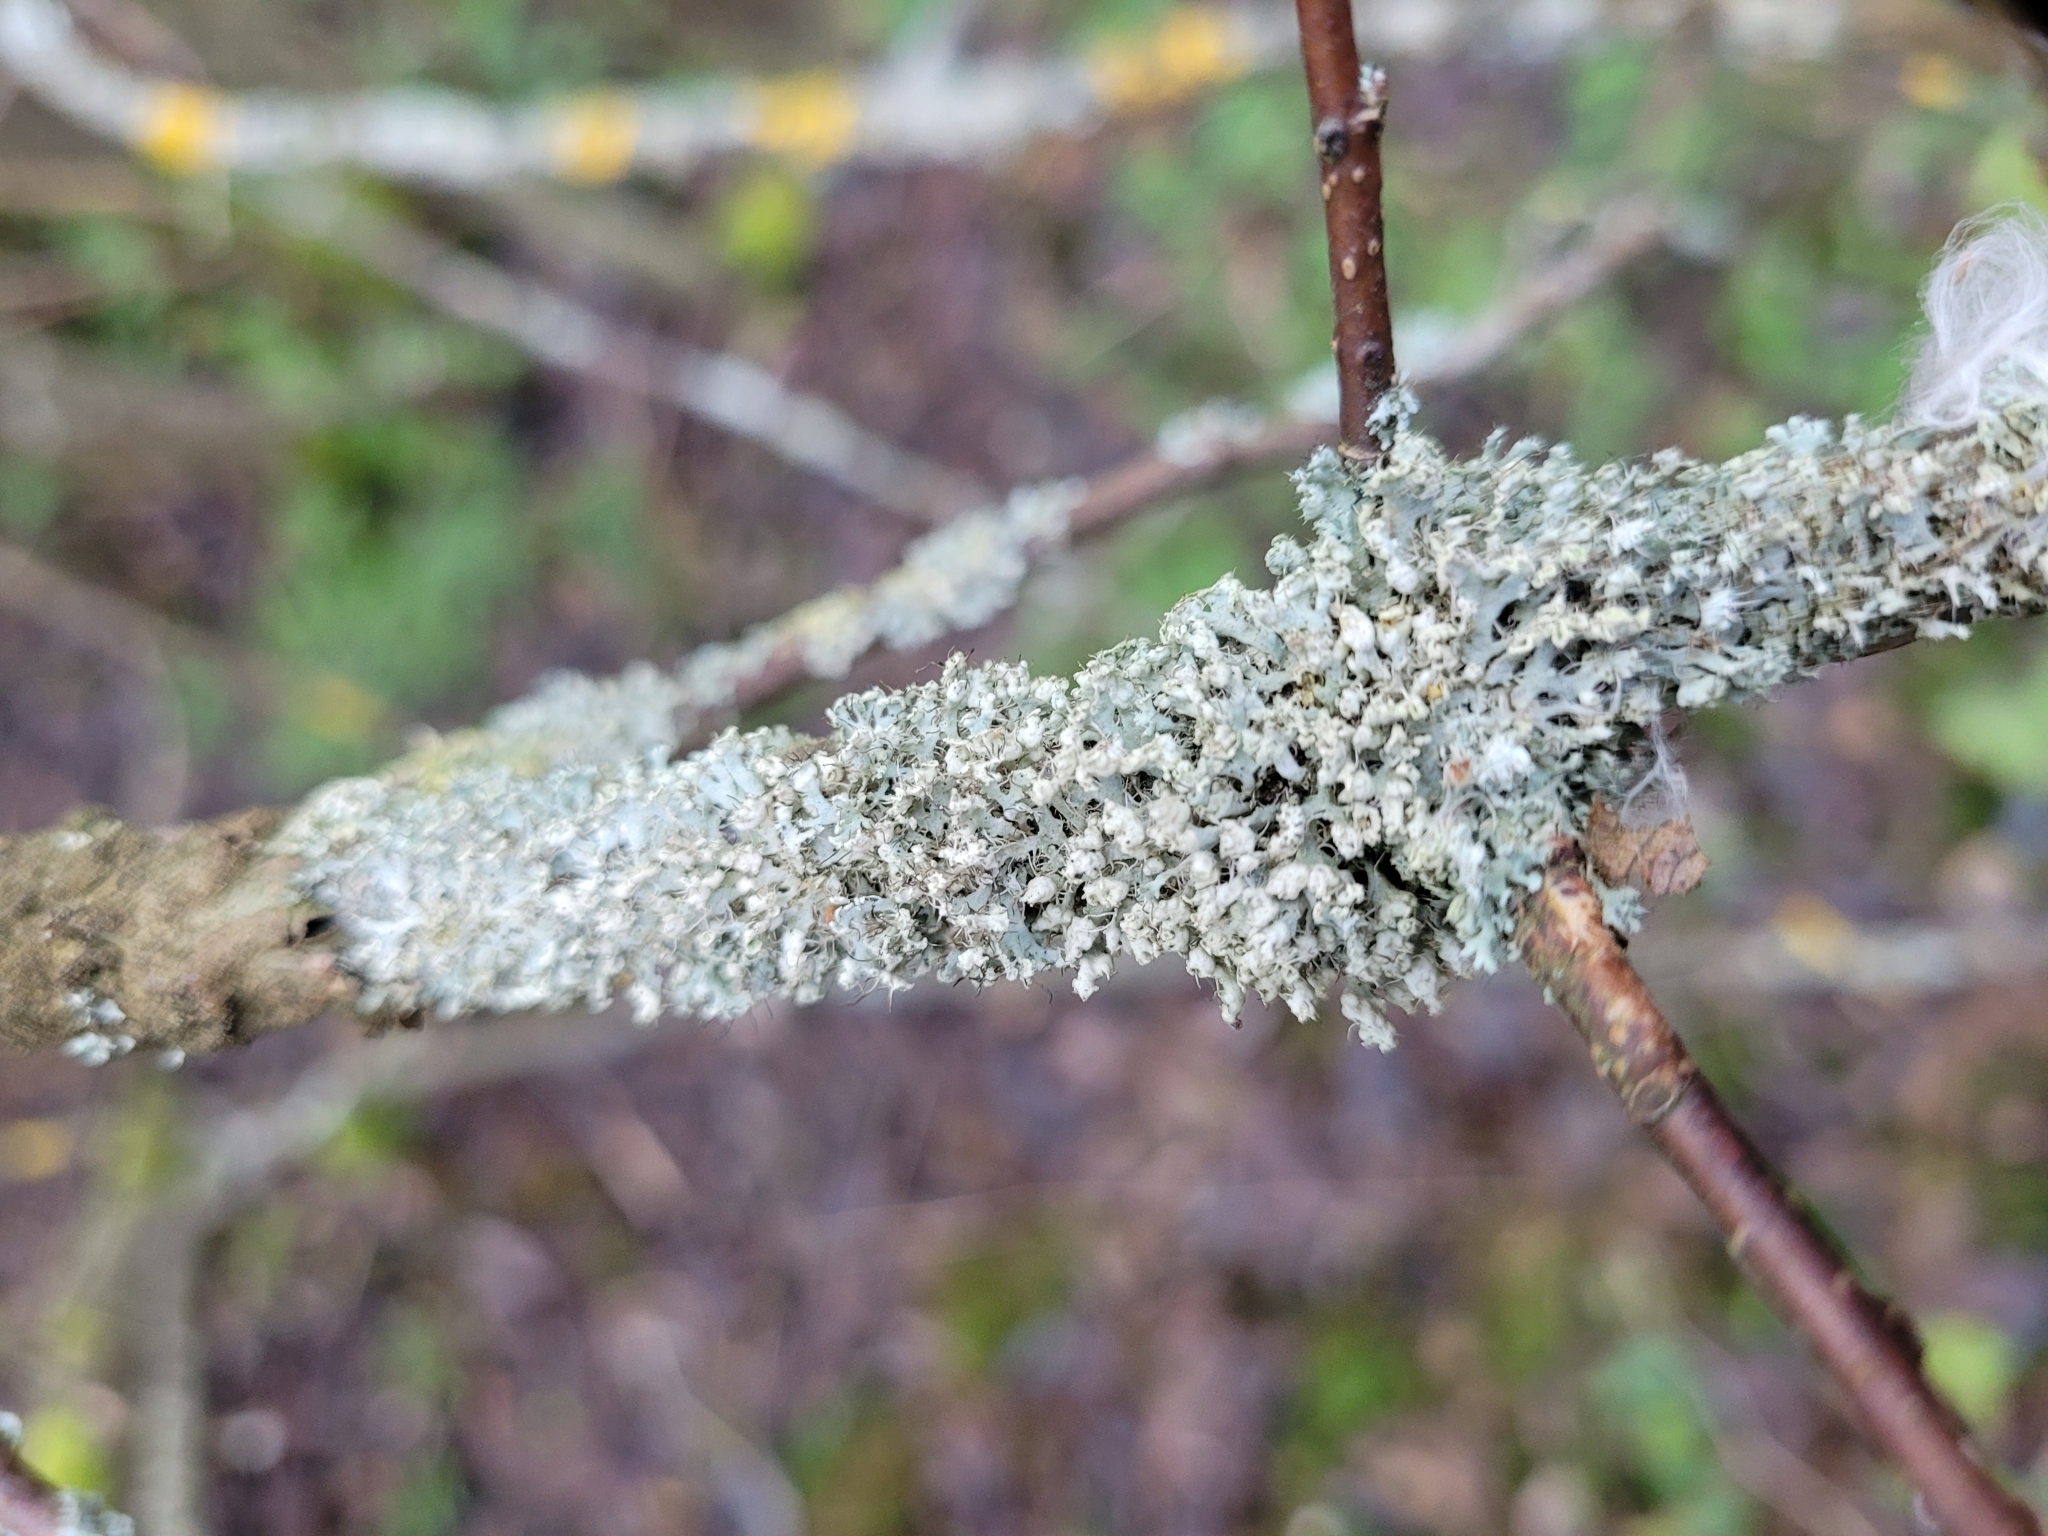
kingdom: Fungi
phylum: Ascomycota
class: Lecanoromycetes
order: Caliciales
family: Physciaceae
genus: Physcia
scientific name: Physcia adscendens
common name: Hooded rosette lichen
